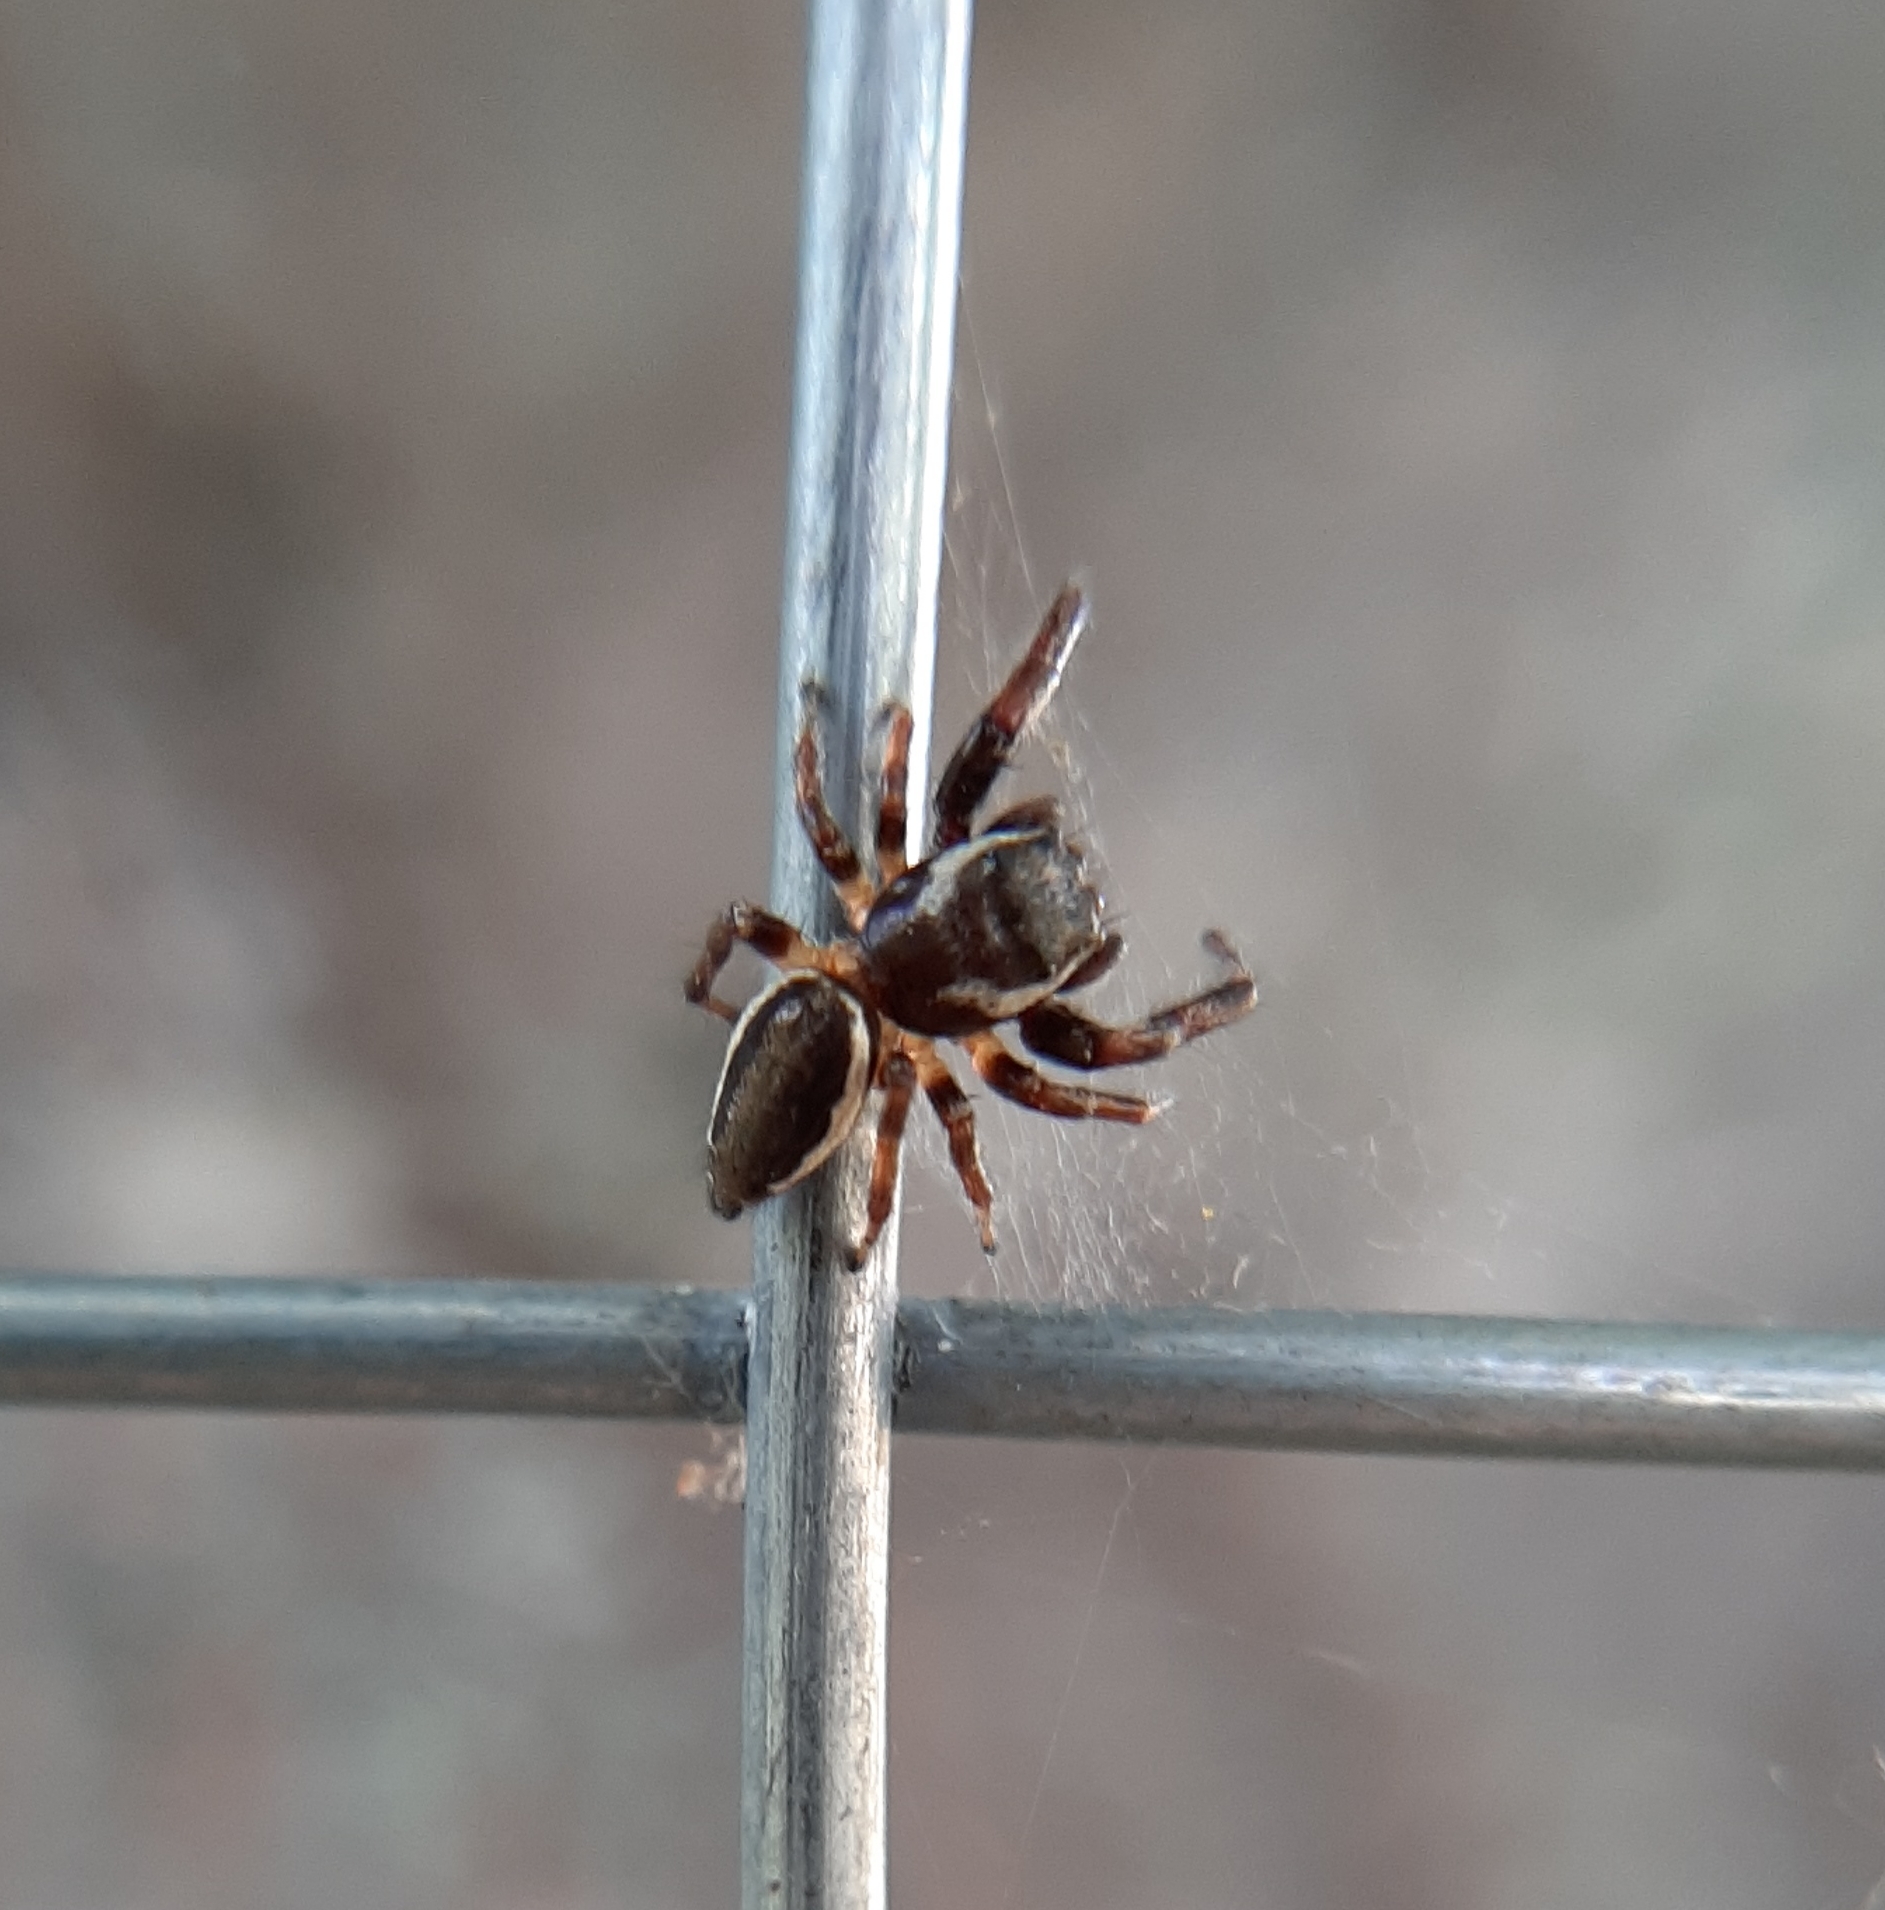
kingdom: Animalia
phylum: Arthropoda
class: Arachnida
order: Araneae
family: Salticidae
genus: Eris
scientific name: Eris militaris
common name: Bronze jumper
